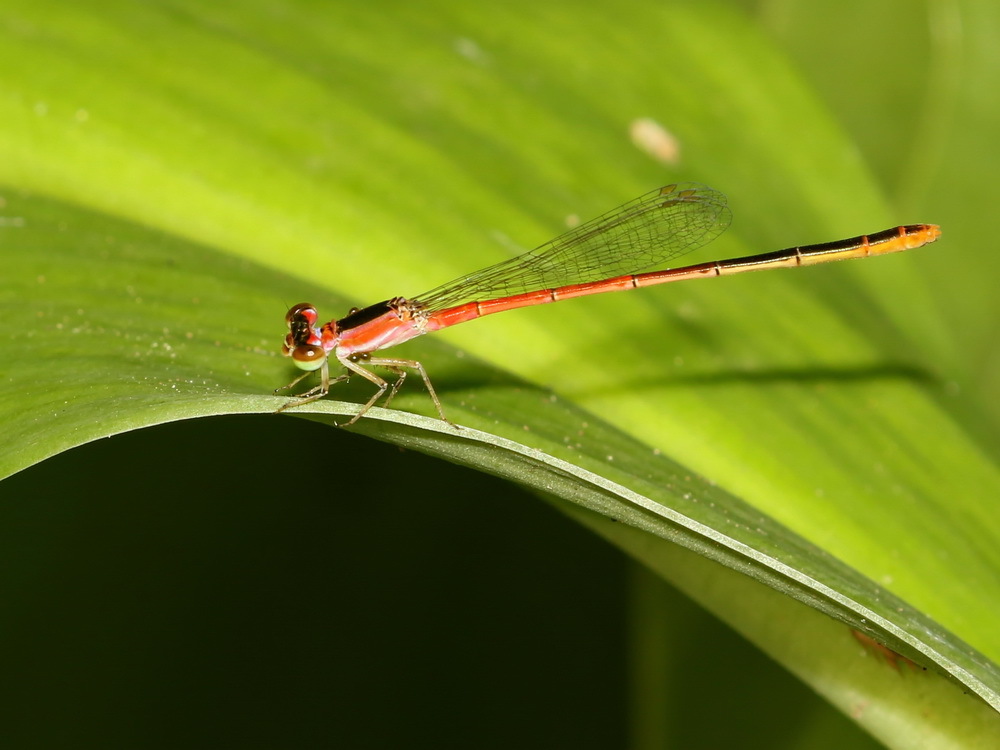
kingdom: Animalia
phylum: Arthropoda
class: Insecta
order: Odonata
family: Coenagrionidae
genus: Agriocnemis
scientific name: Agriocnemis femina
